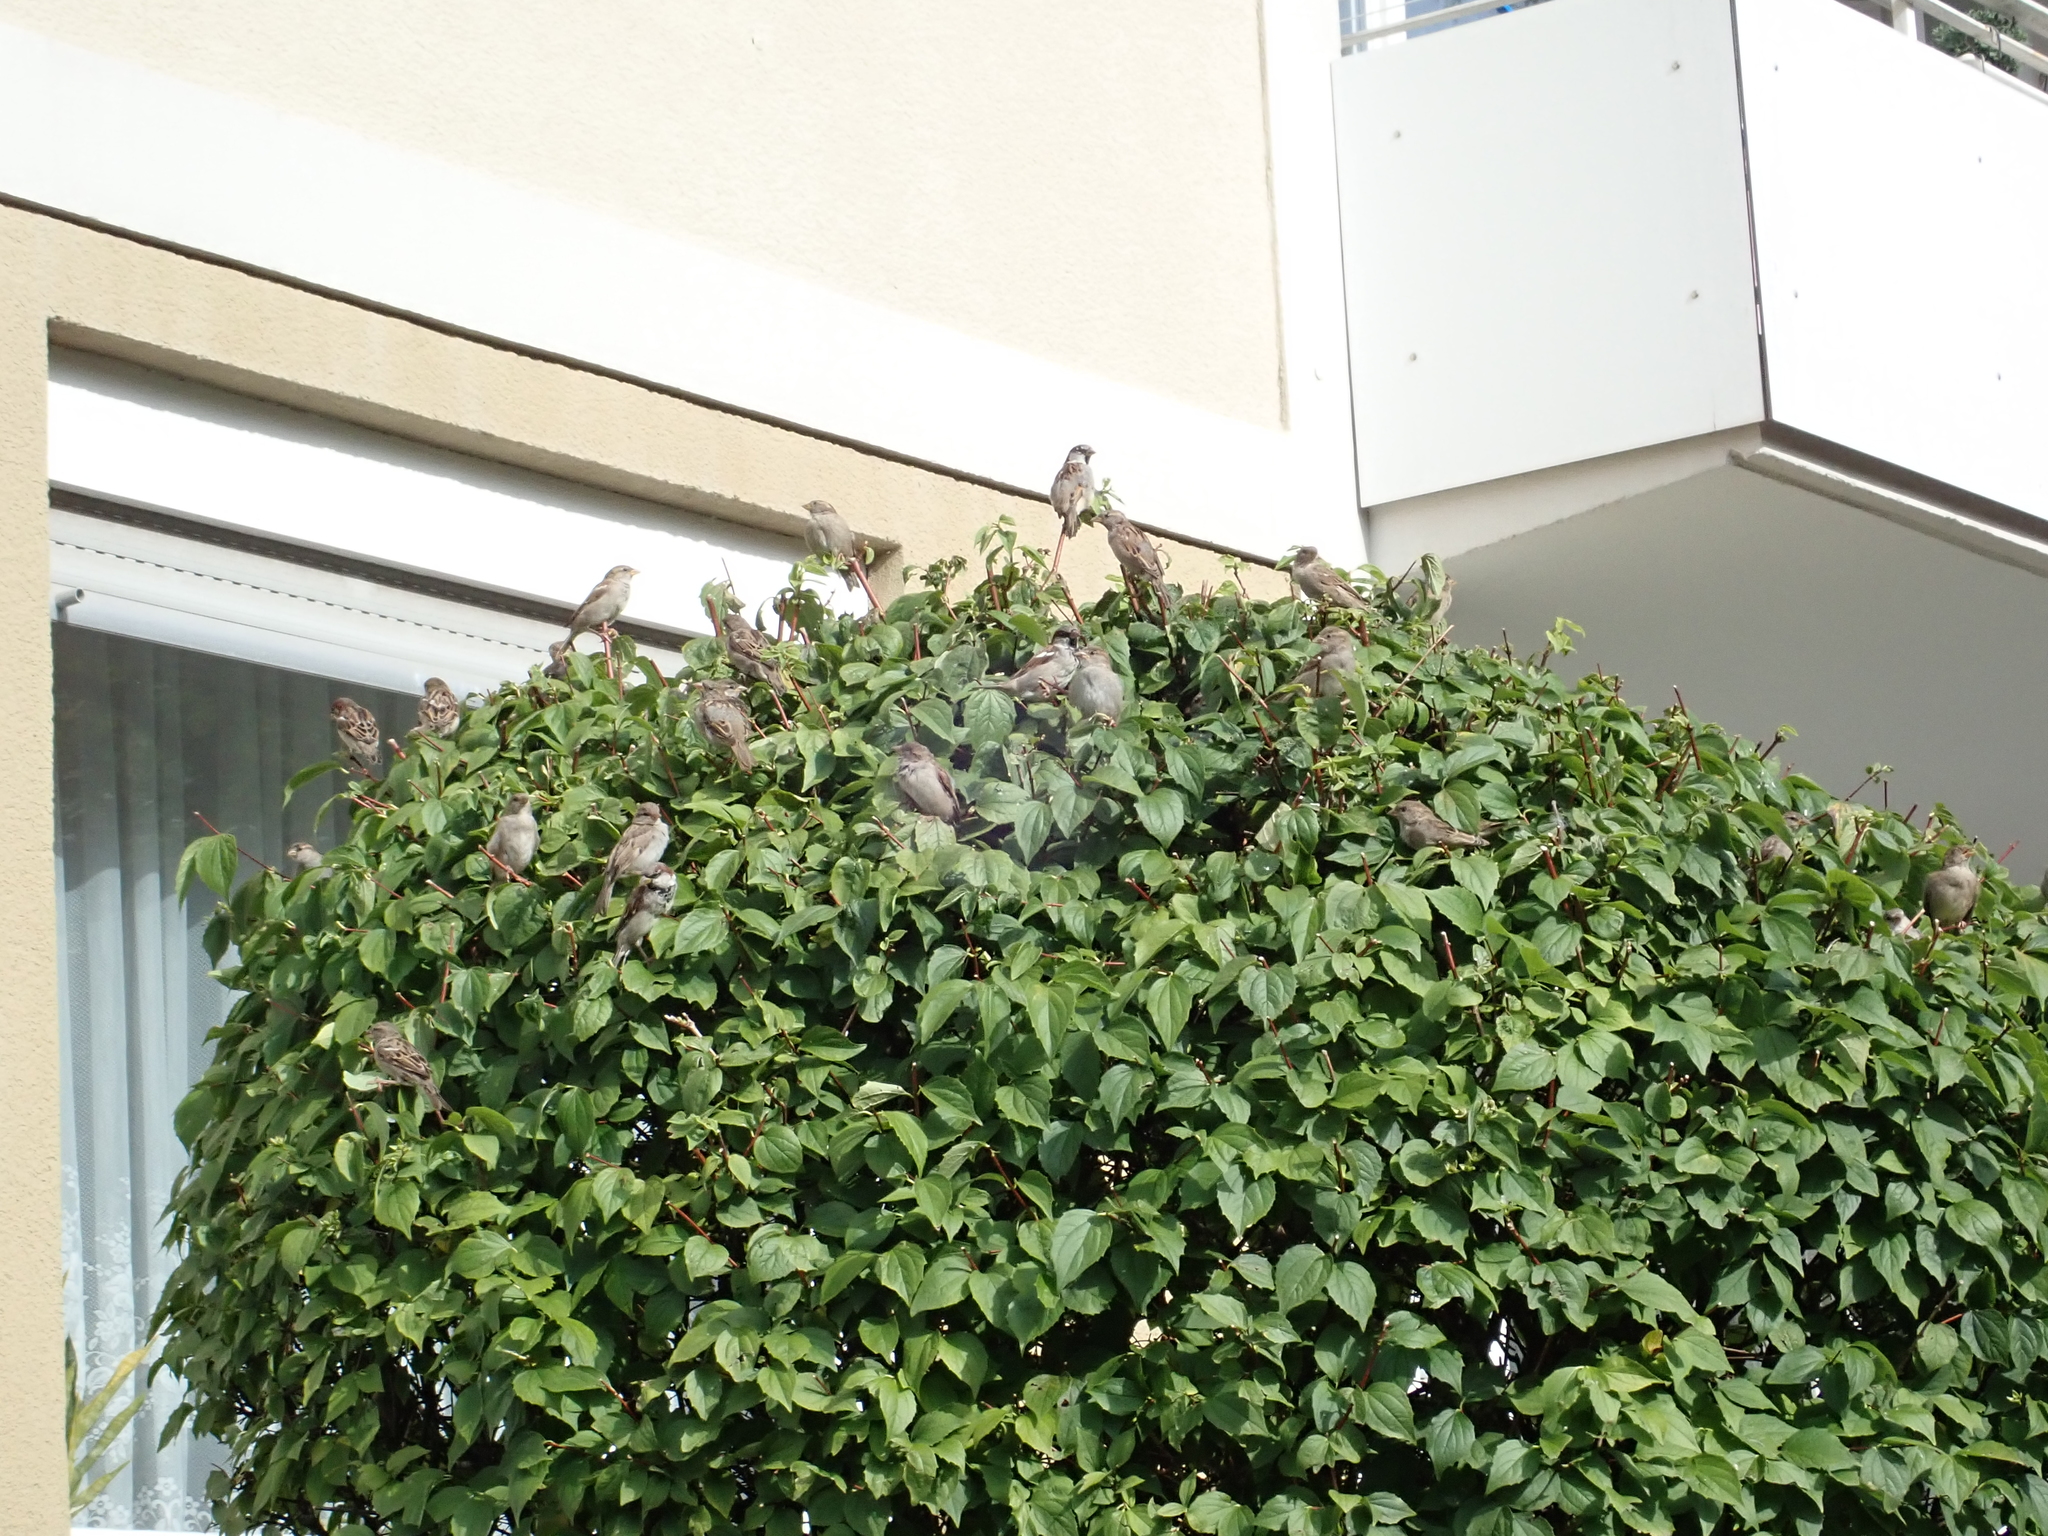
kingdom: Animalia
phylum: Chordata
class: Aves
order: Passeriformes
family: Passeridae
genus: Passer
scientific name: Passer domesticus
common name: House sparrow
